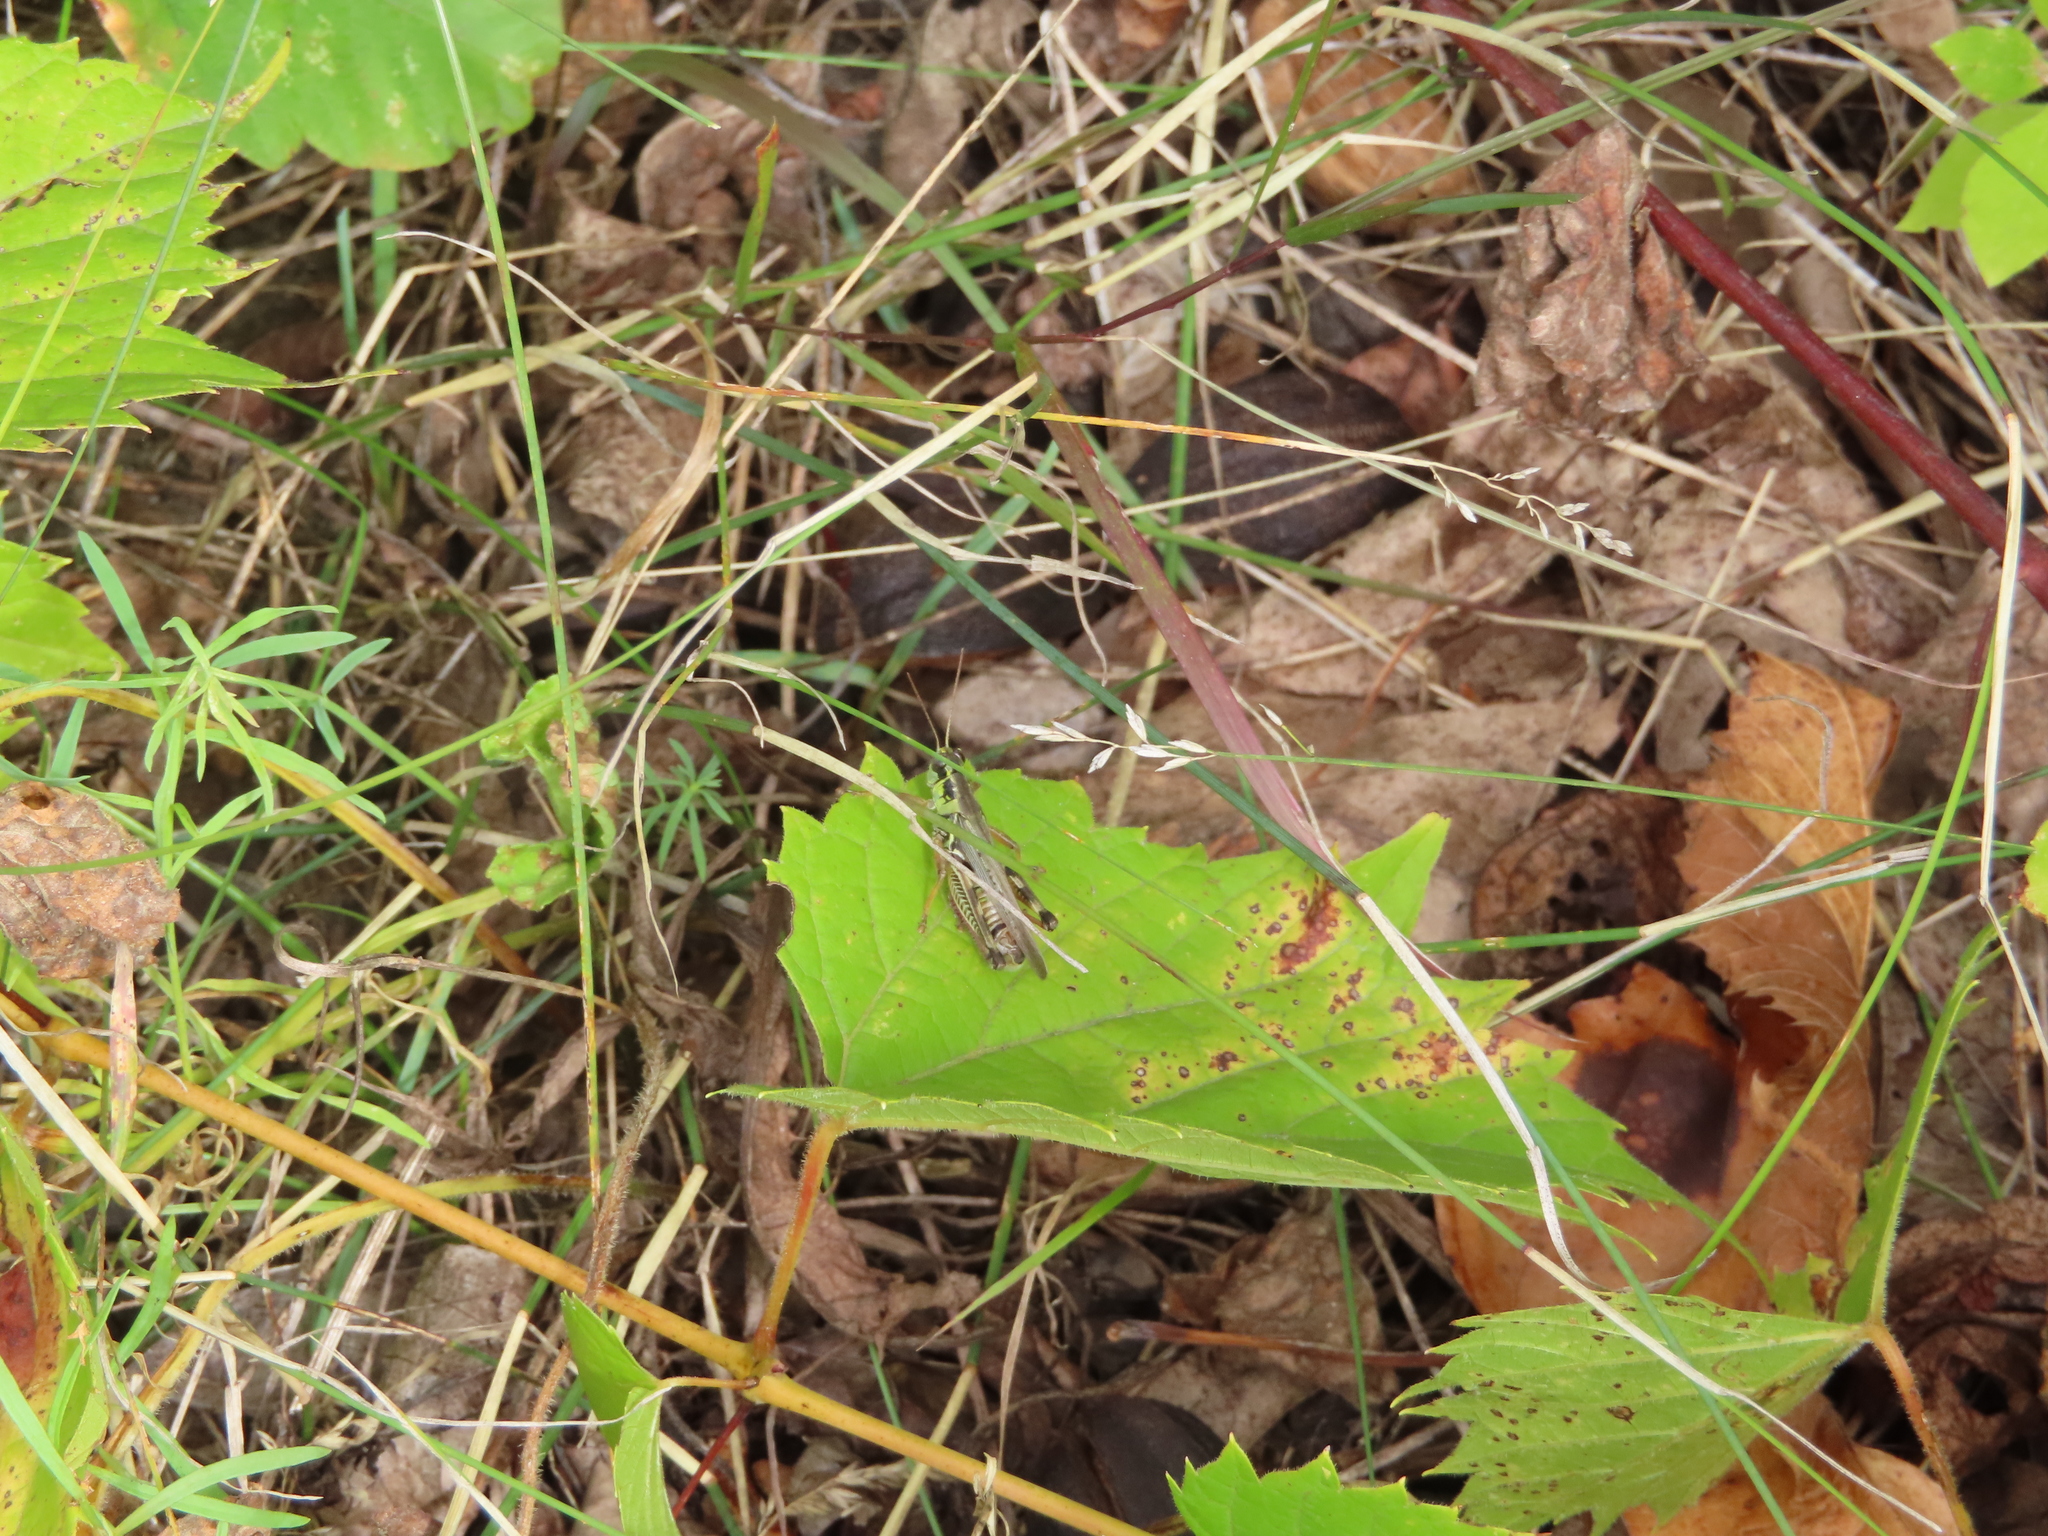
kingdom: Animalia
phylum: Arthropoda
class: Insecta
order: Orthoptera
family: Acrididae
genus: Melanoplus
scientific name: Melanoplus femurrubrum
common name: Red-legged grasshopper
